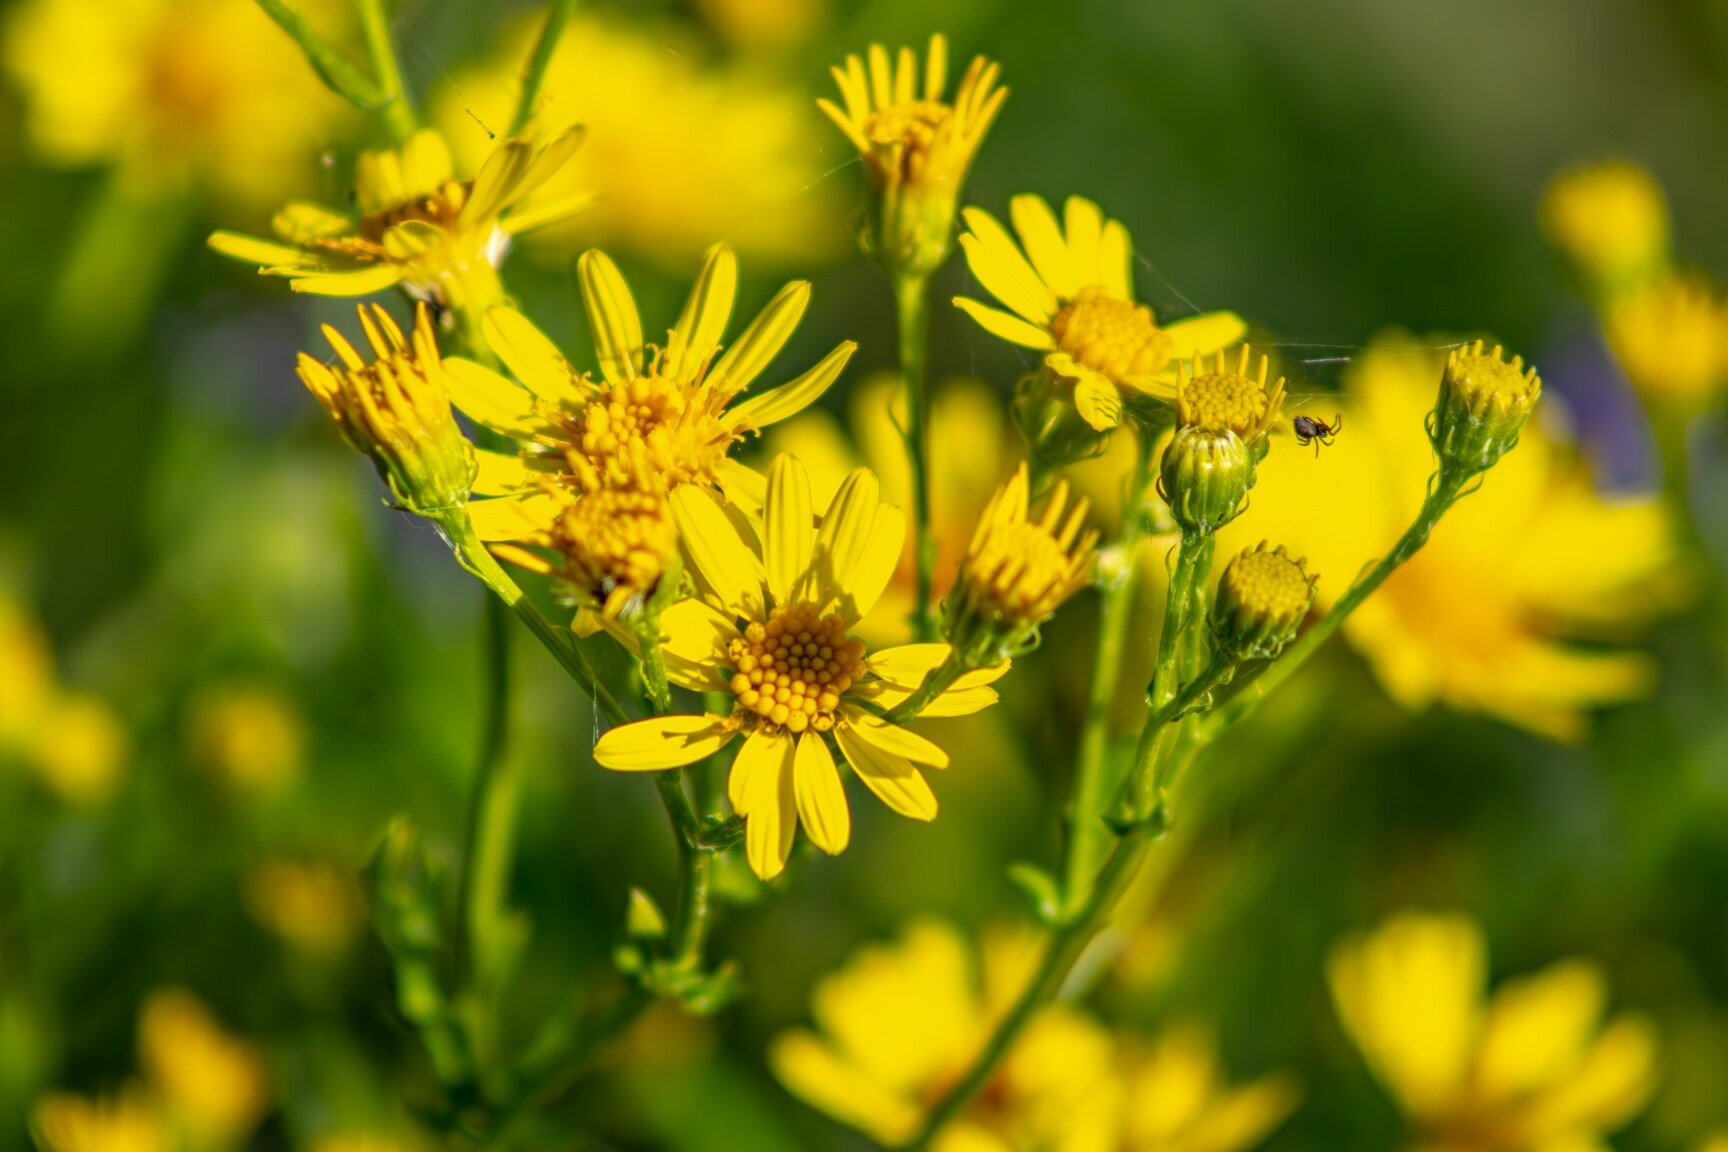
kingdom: Plantae
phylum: Tracheophyta
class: Magnoliopsida
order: Asterales
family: Asteraceae
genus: Jacobaea
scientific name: Jacobaea vulgaris
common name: Stinking willie
